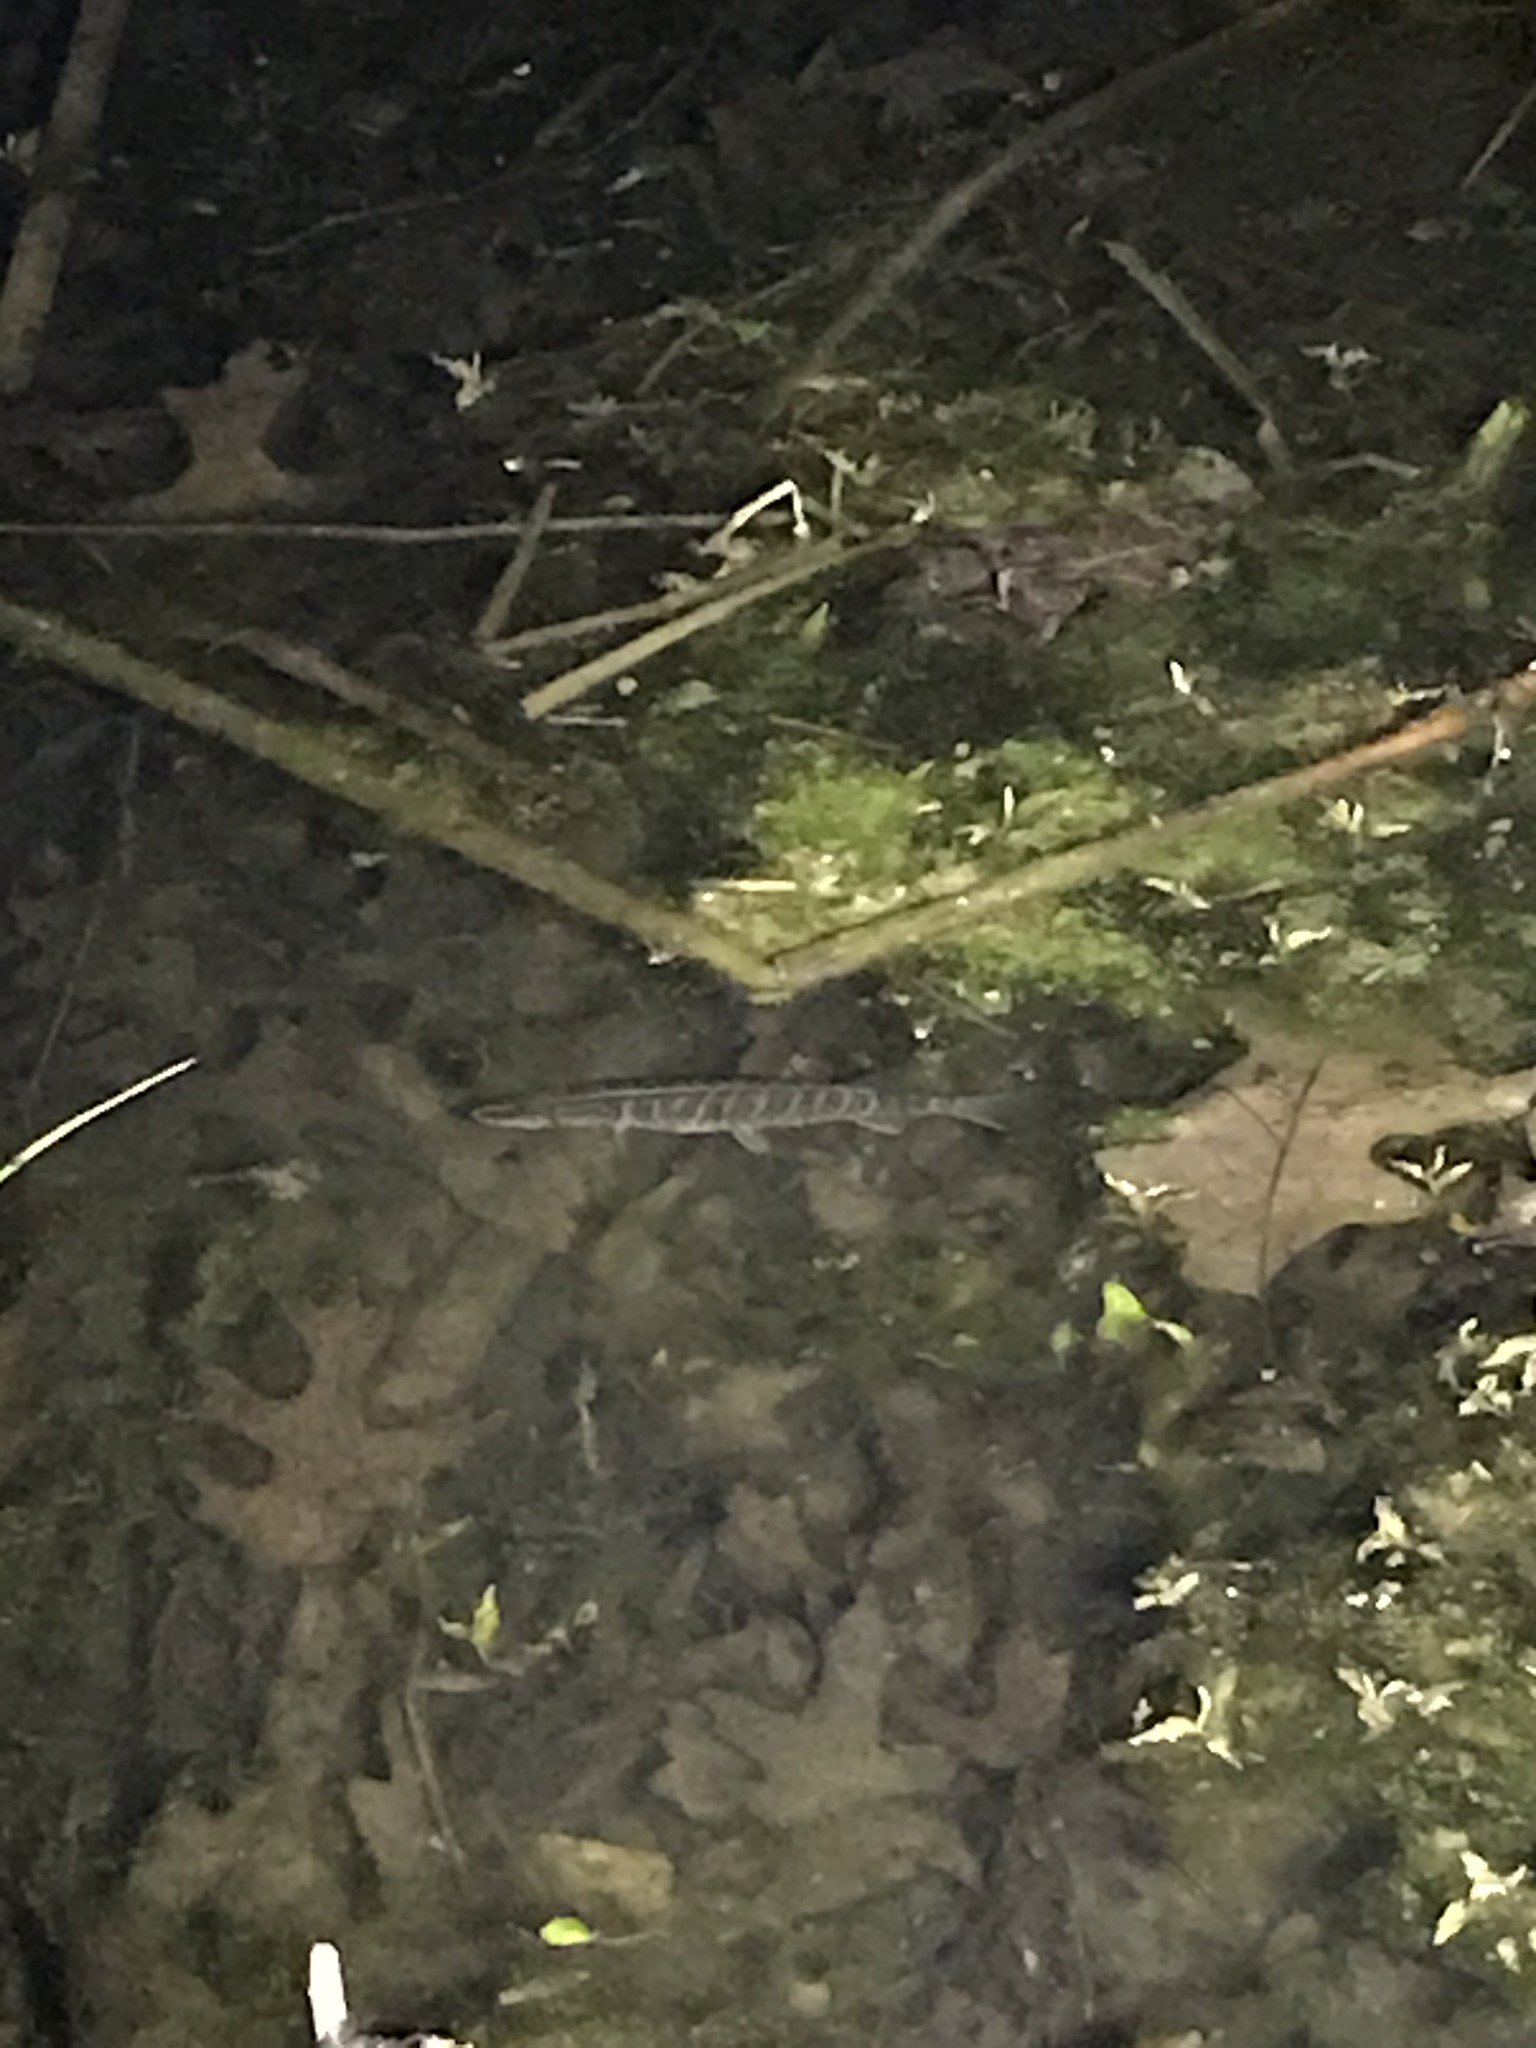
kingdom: Animalia
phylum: Chordata
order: Esociformes
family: Esocidae
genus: Esox
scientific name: Esox niger
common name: Chain pickerel
